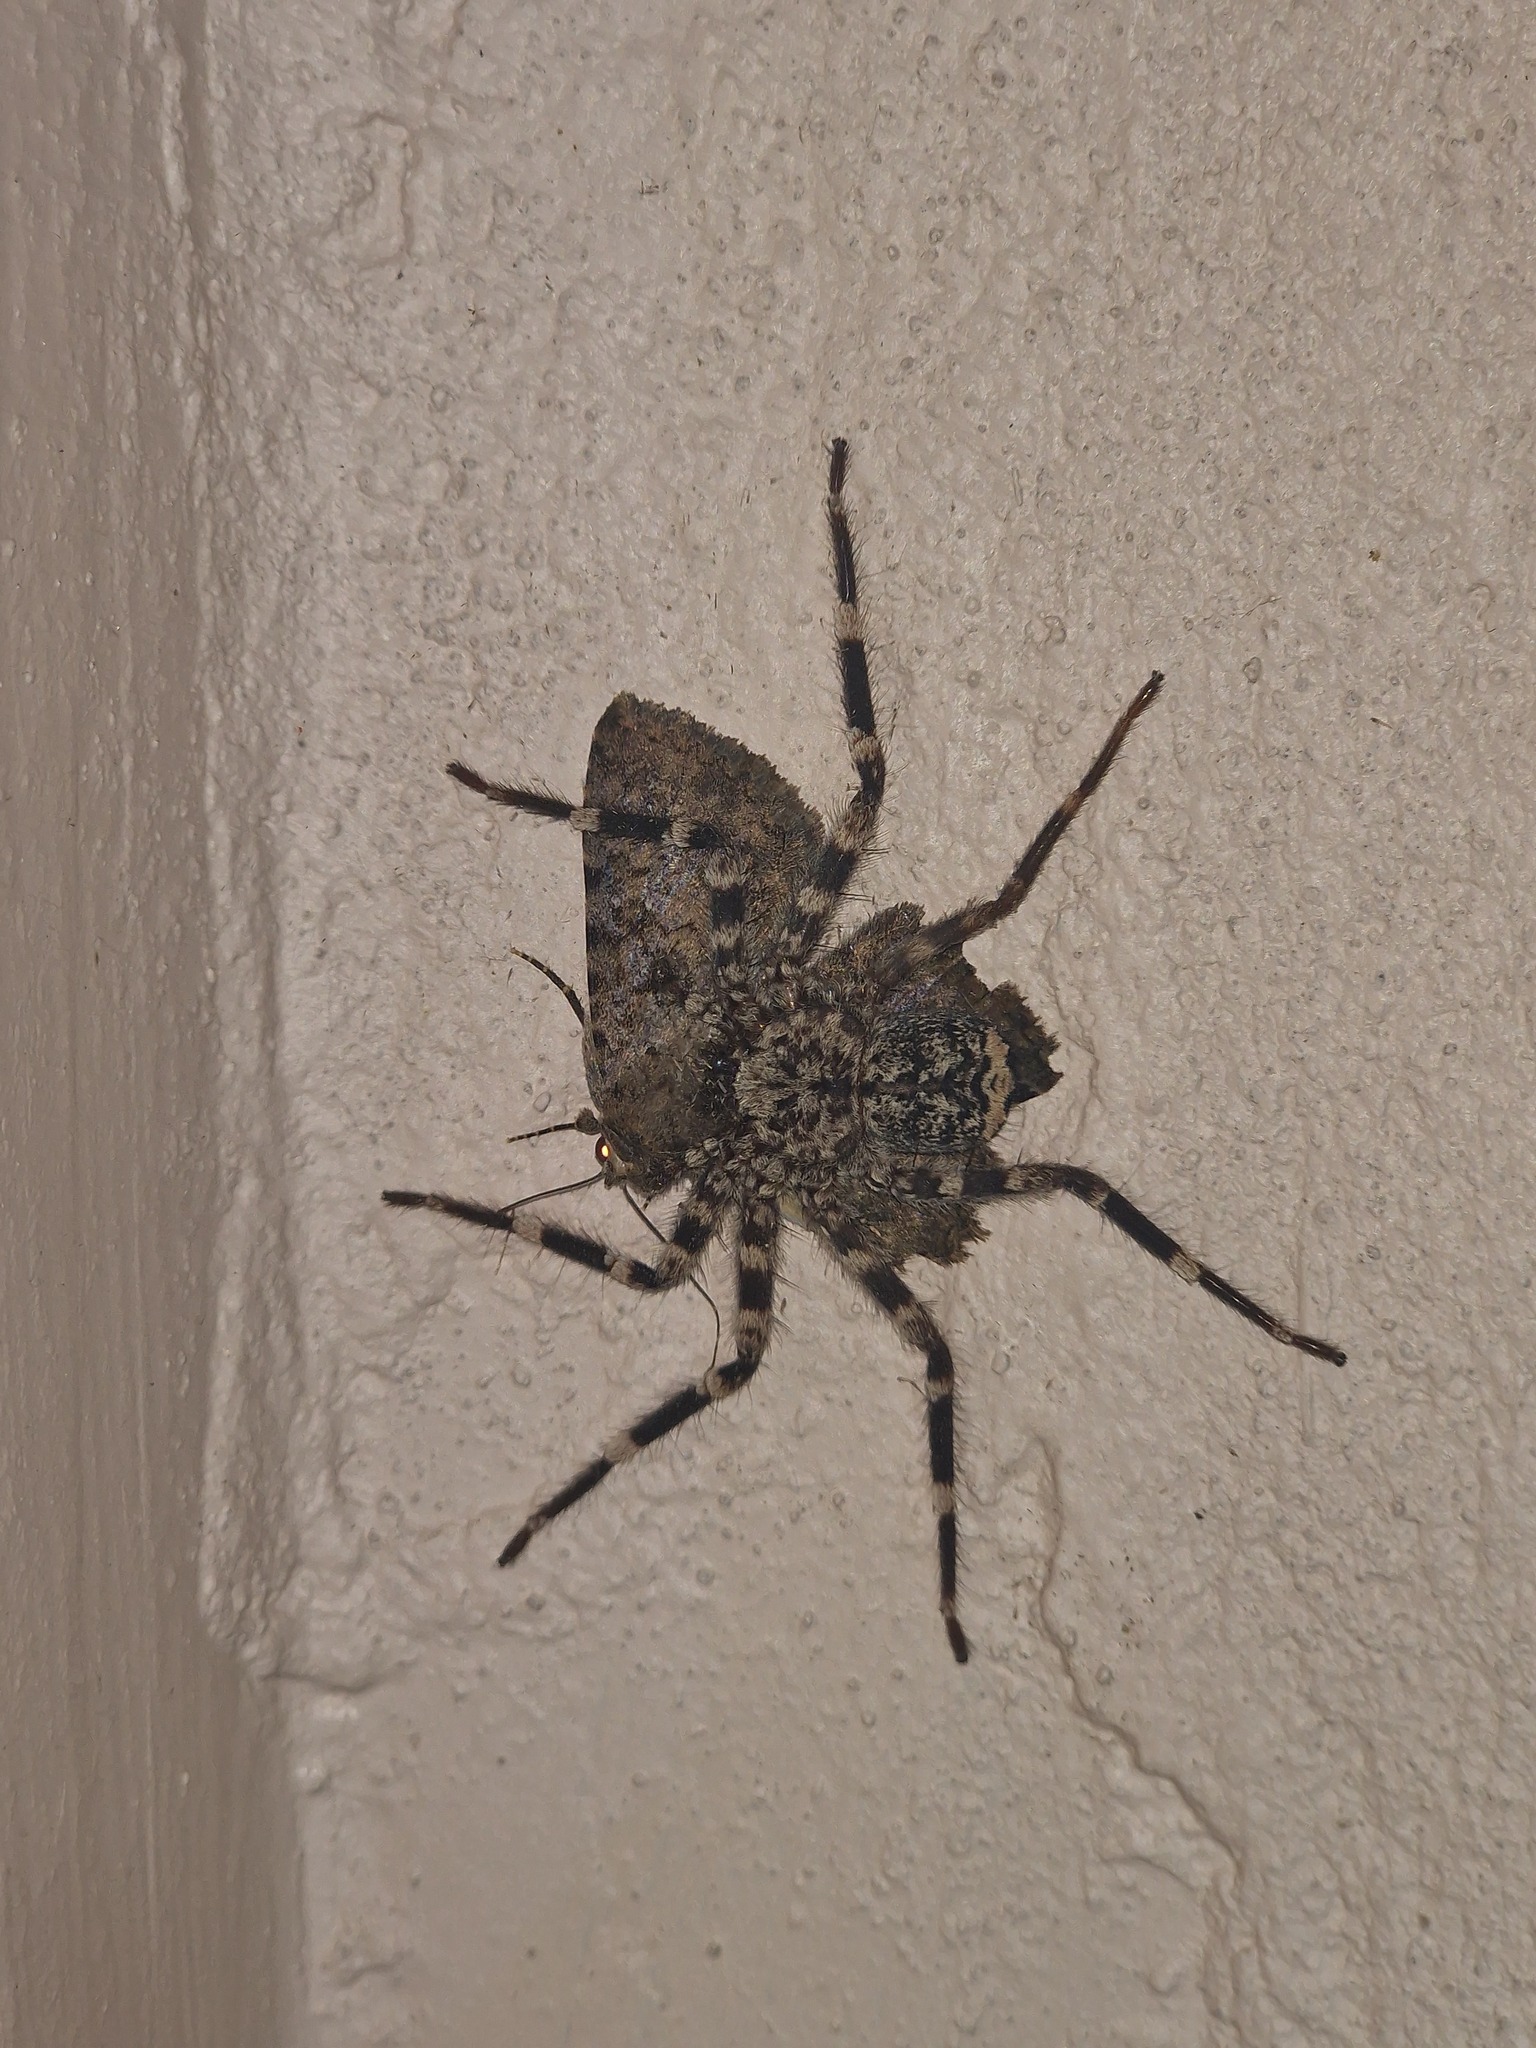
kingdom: Animalia
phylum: Arthropoda
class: Arachnida
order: Araneae
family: Selenopidae
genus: Selenops
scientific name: Selenops radiatus
